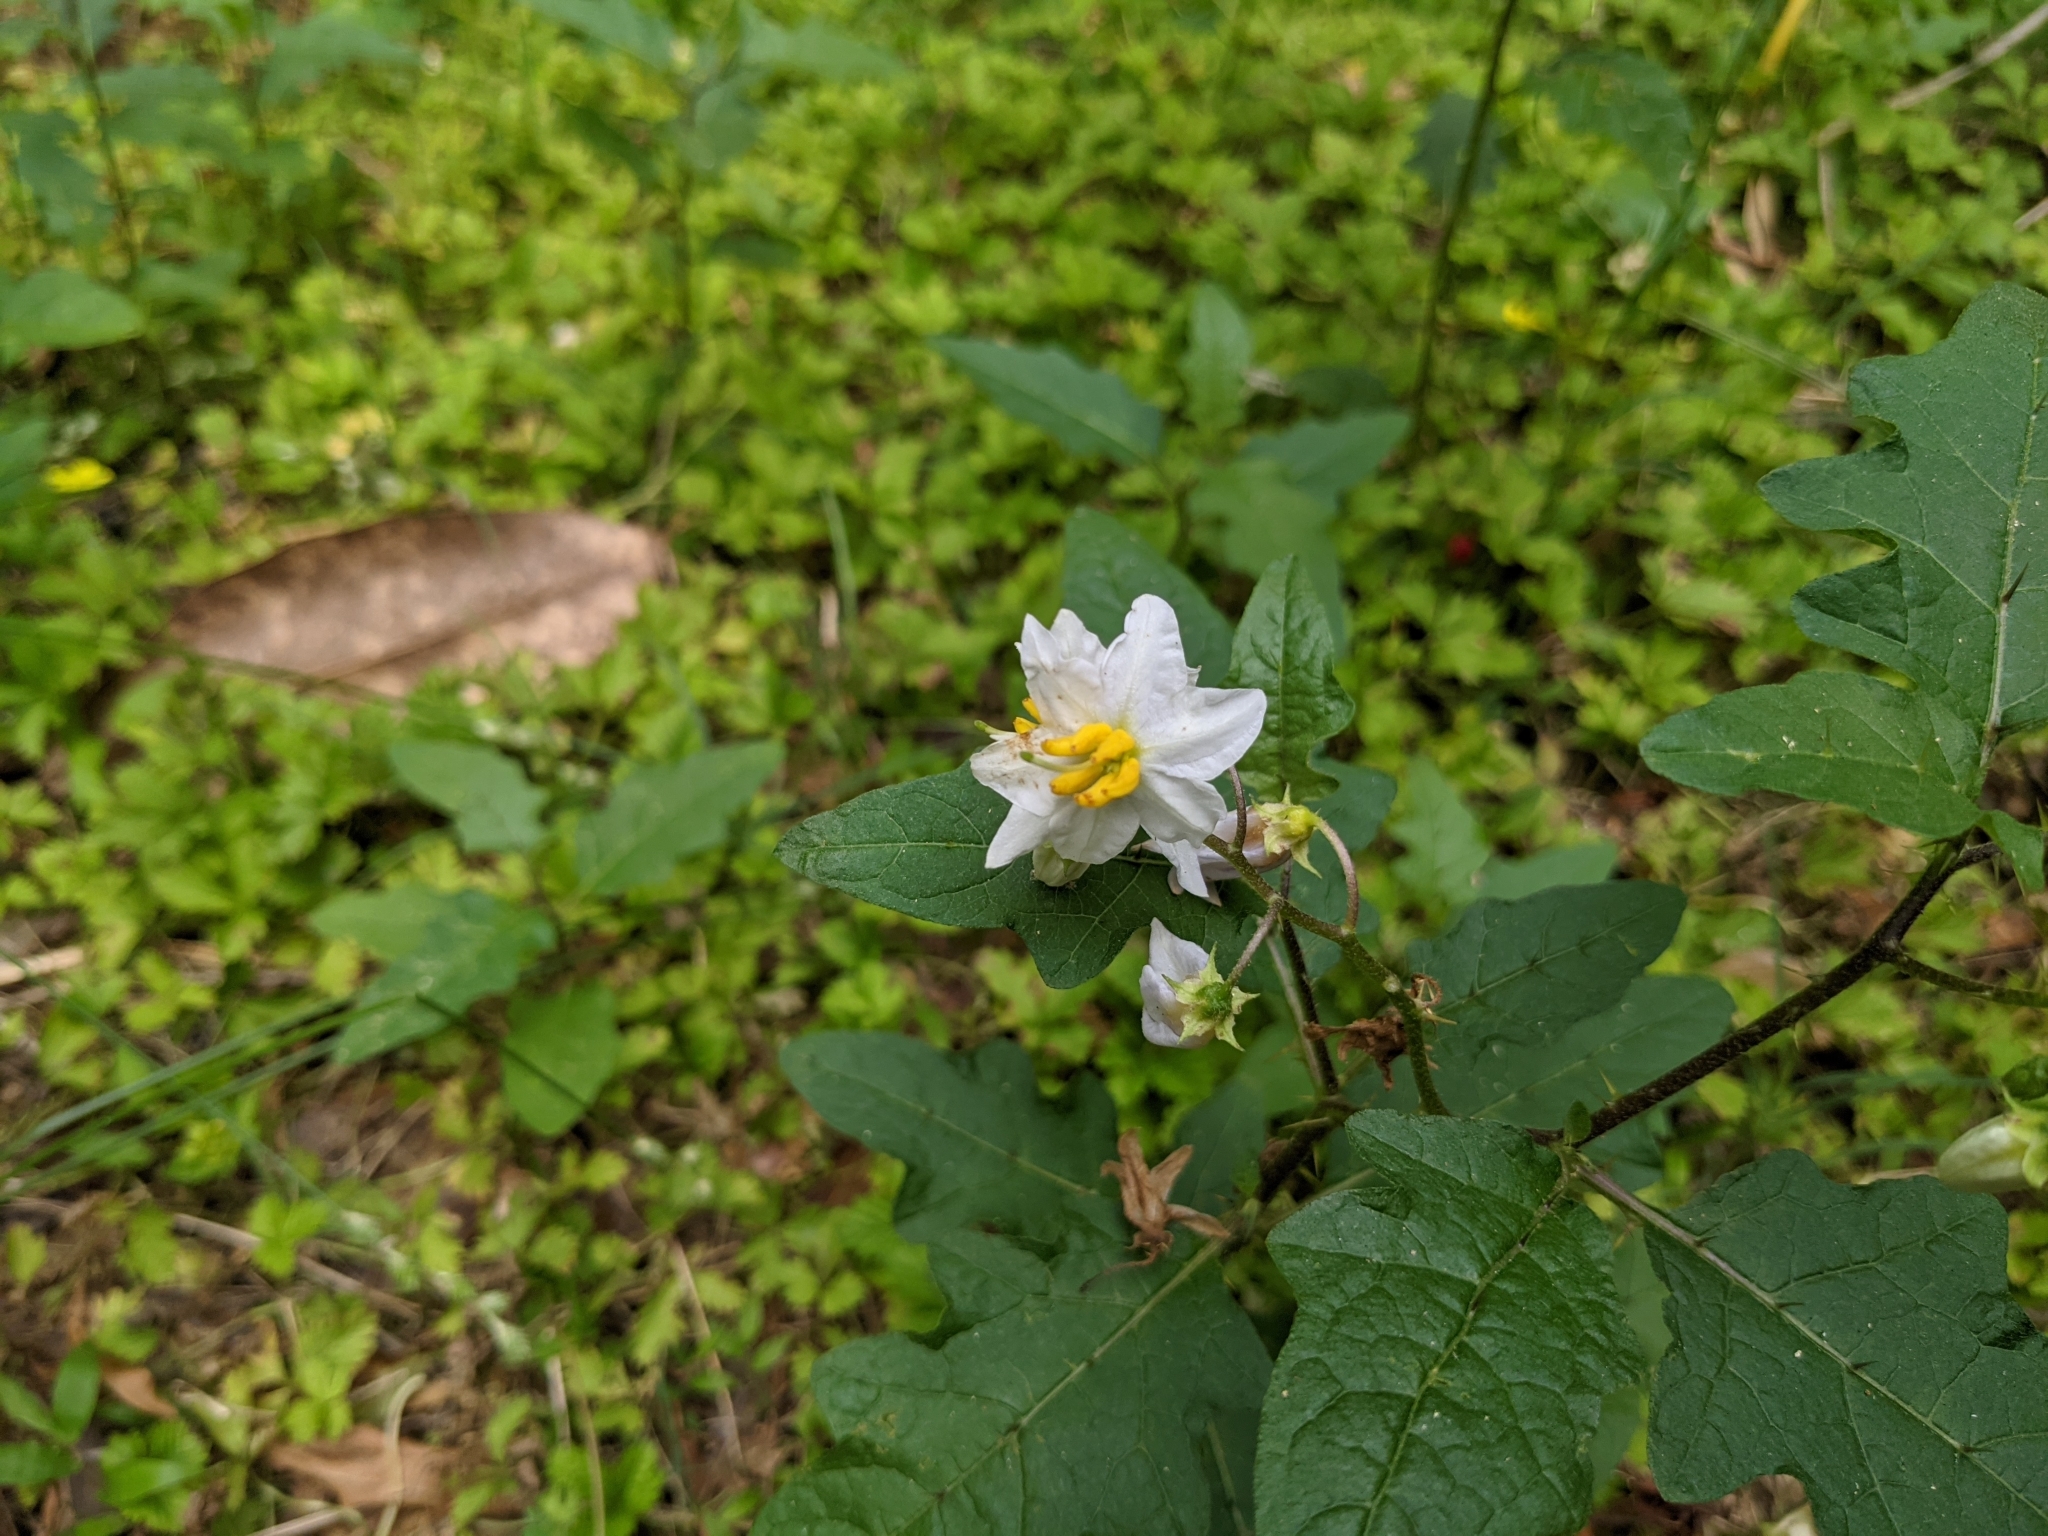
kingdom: Plantae
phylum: Tracheophyta
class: Magnoliopsida
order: Solanales
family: Solanaceae
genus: Solanum
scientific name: Solanum carolinense
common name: Horse-nettle
